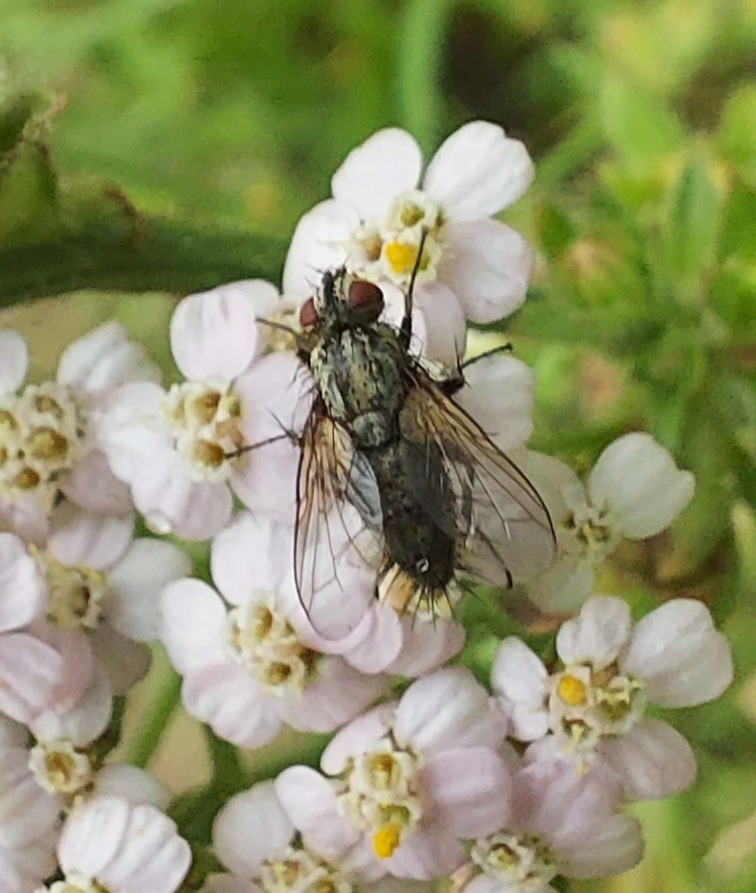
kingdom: Animalia
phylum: Arthropoda
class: Insecta
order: Diptera
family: Tachinidae
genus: Zeuxia
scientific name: Zeuxia cinerea
